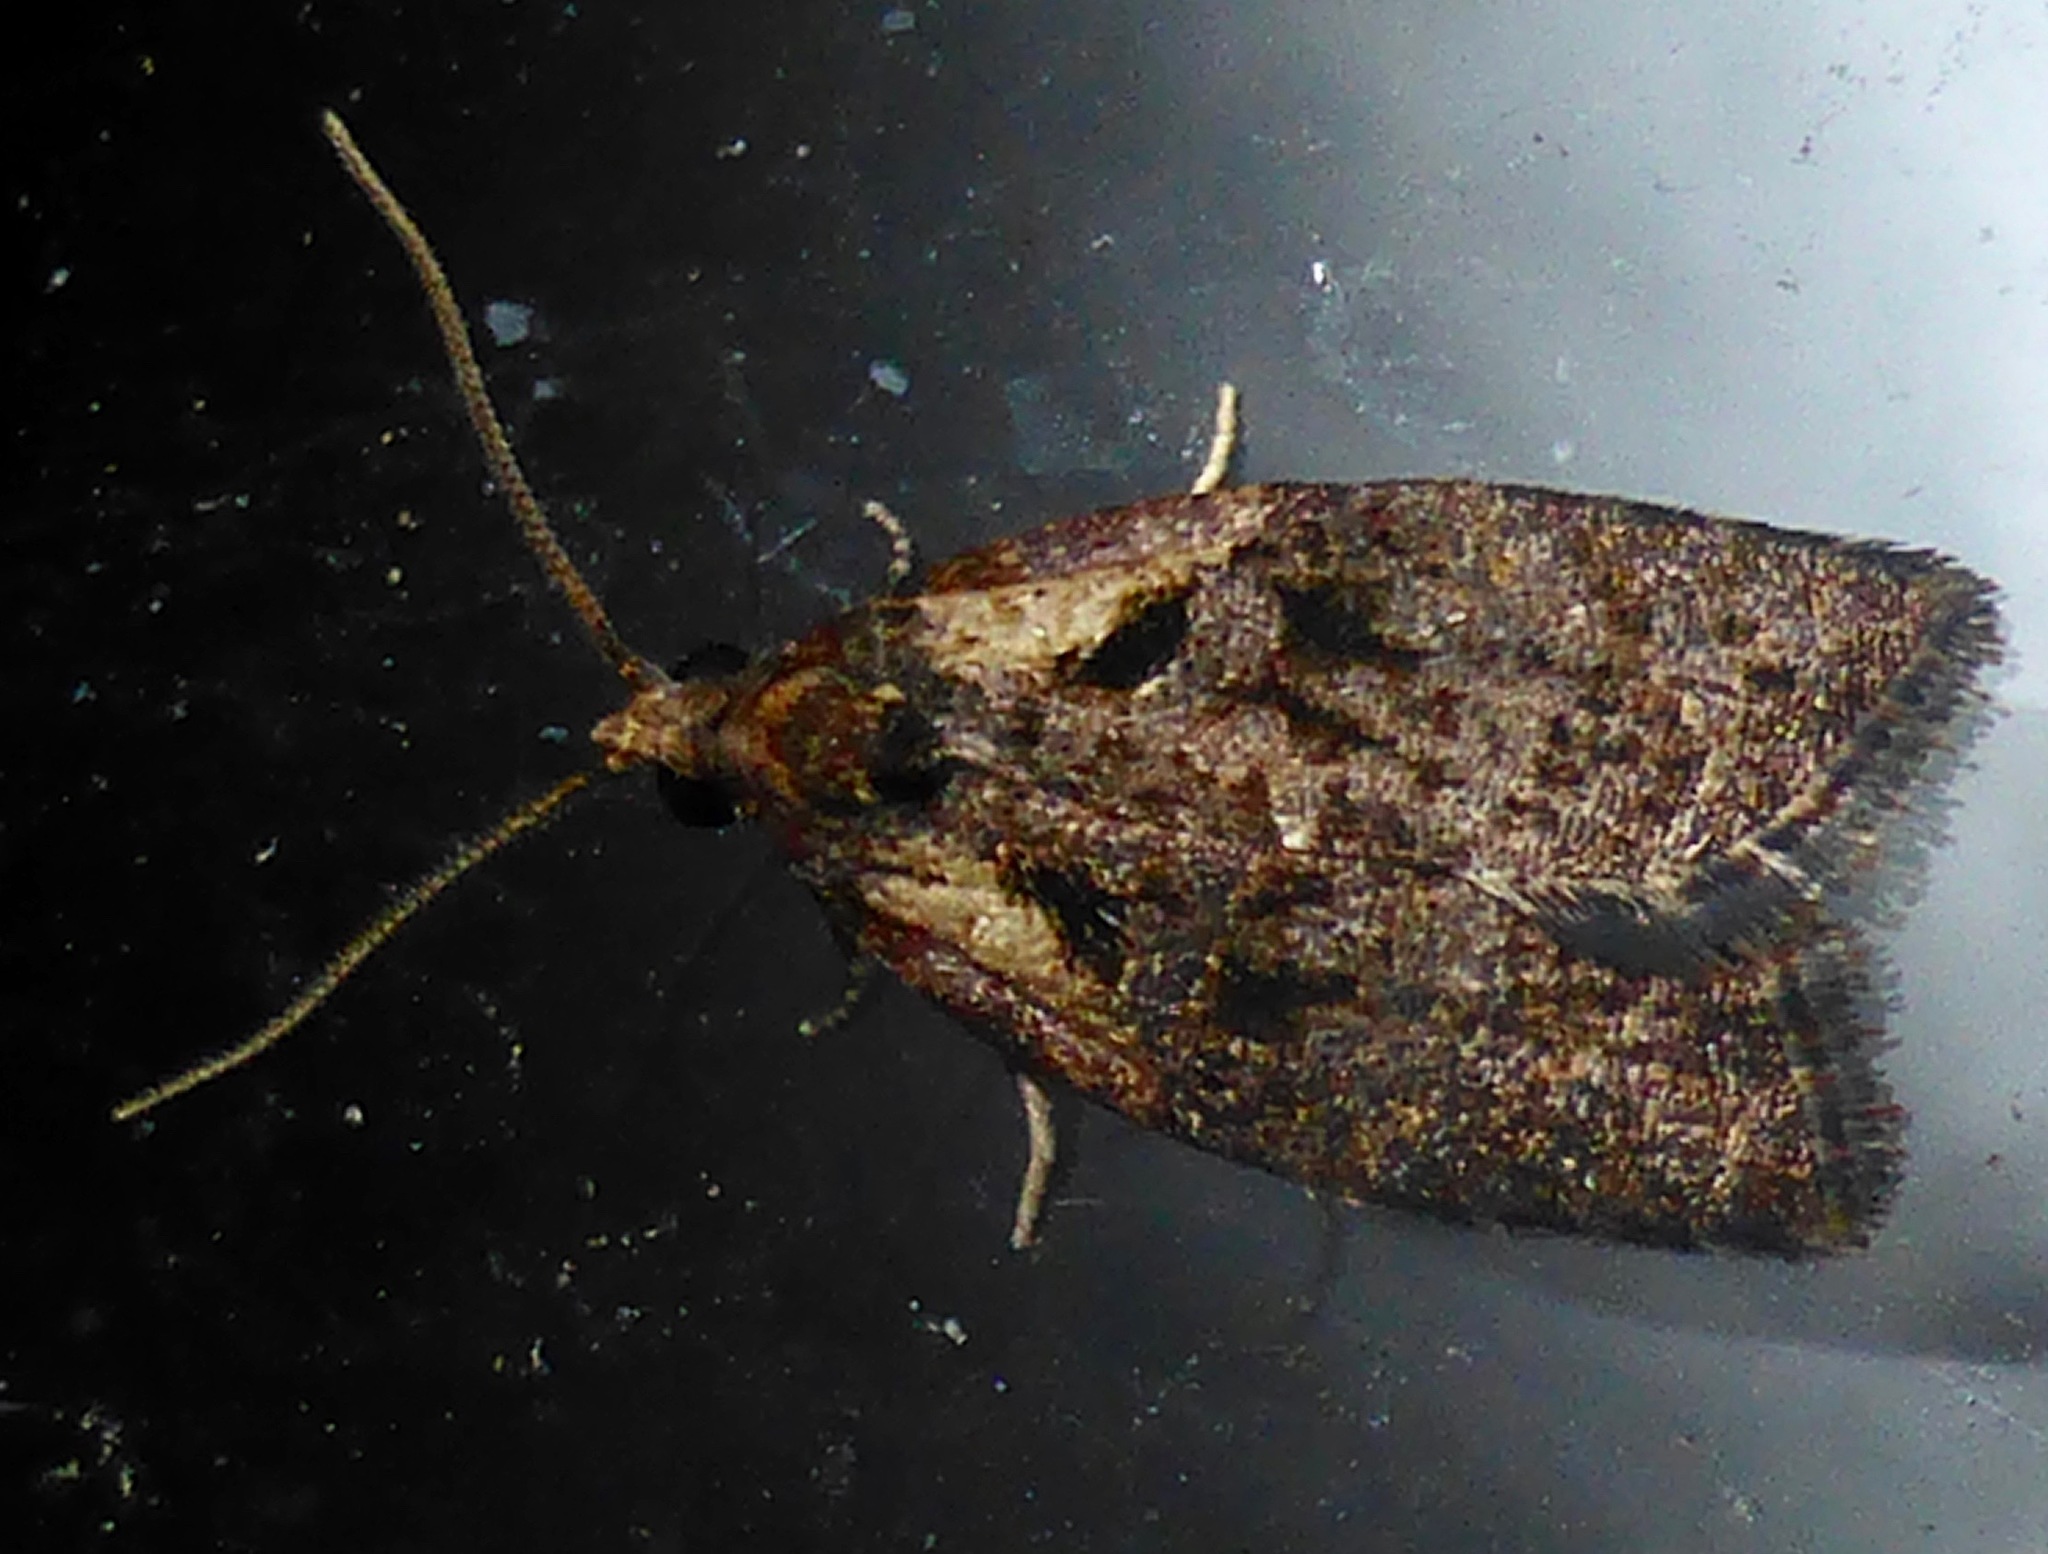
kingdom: Animalia
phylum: Arthropoda
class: Insecta
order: Lepidoptera
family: Tortricidae
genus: Capua
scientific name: Capua intractana
